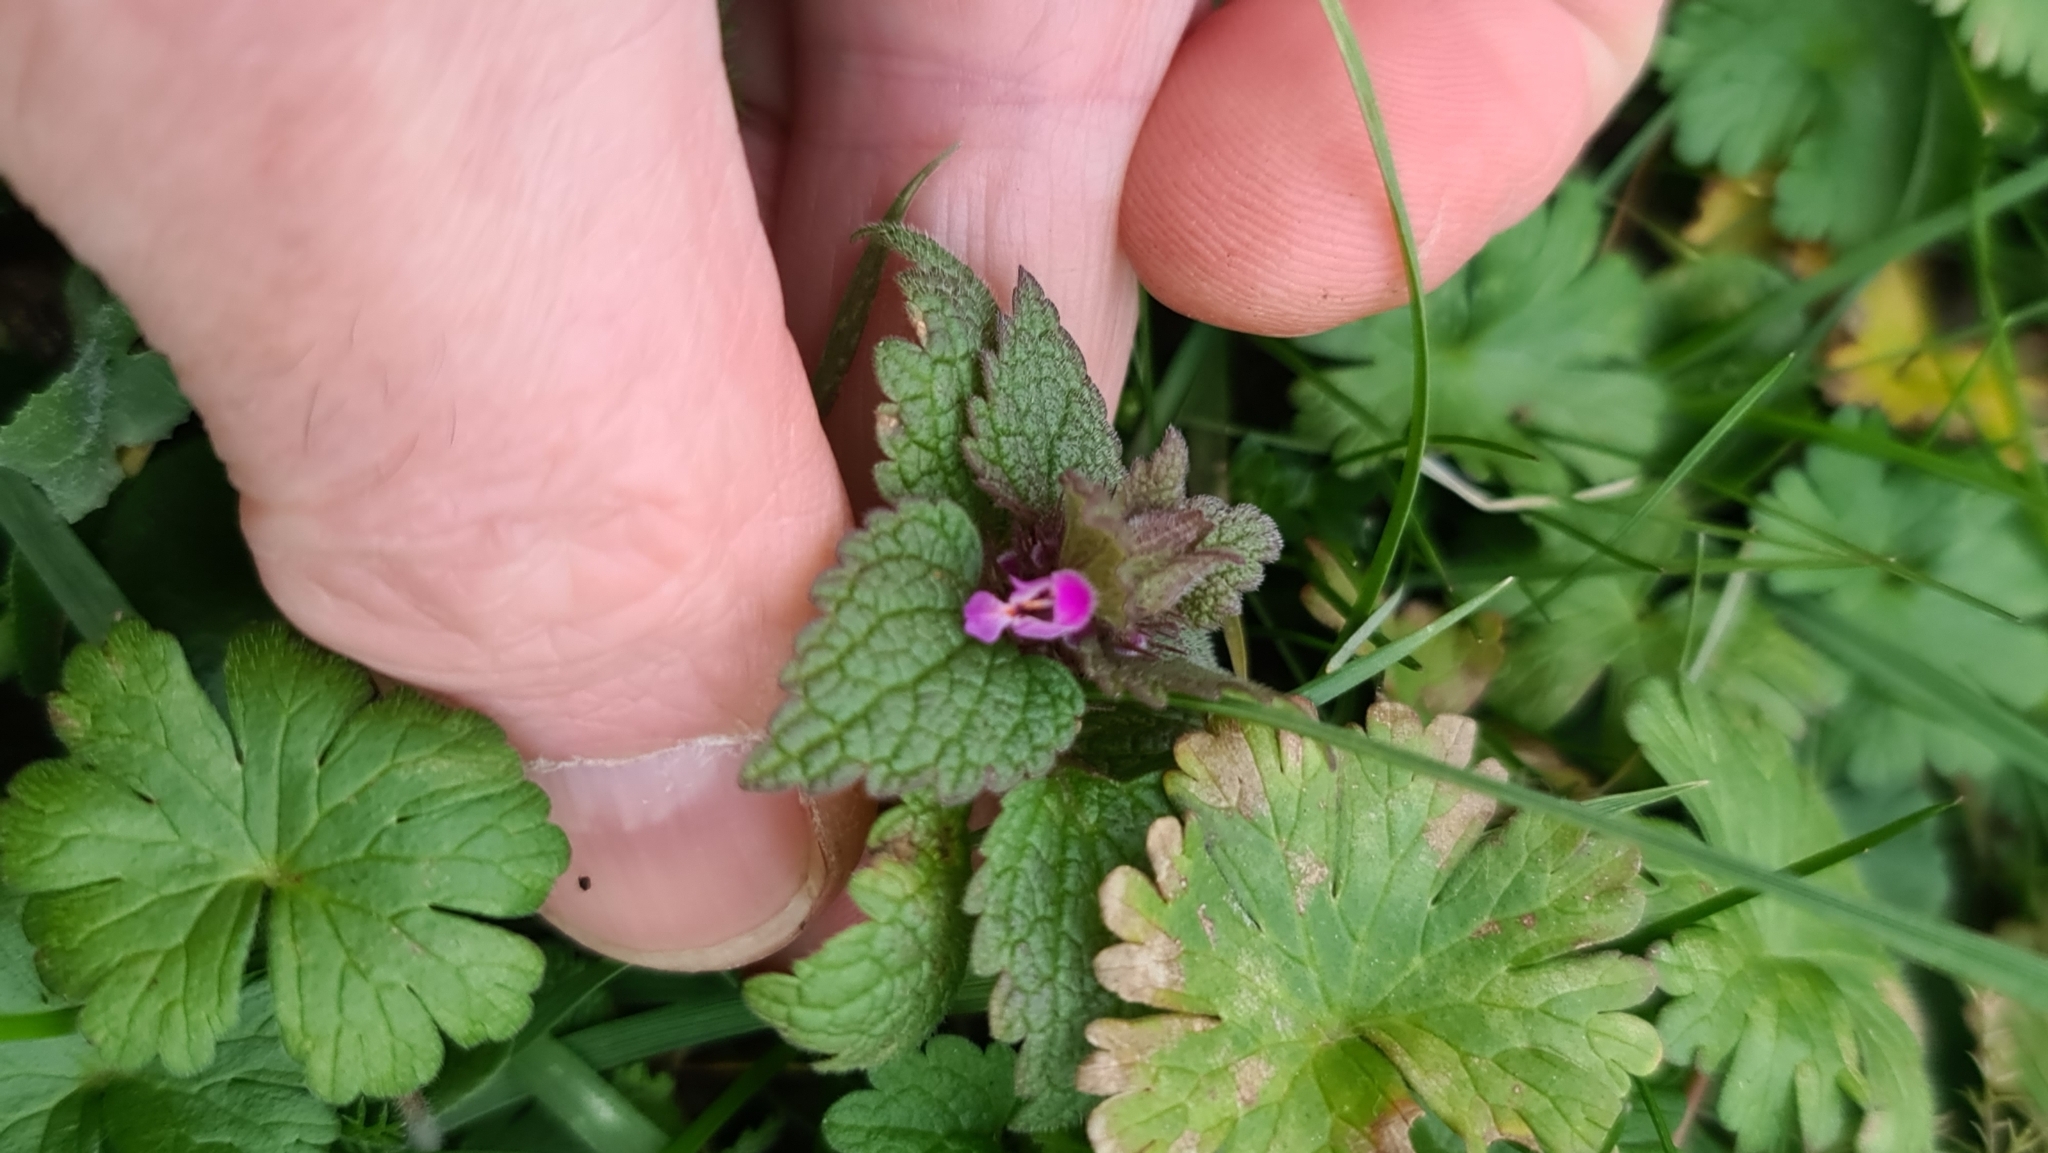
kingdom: Plantae
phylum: Tracheophyta
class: Magnoliopsida
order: Lamiales
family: Lamiaceae
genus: Lamium
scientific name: Lamium purpureum
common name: Red dead-nettle
